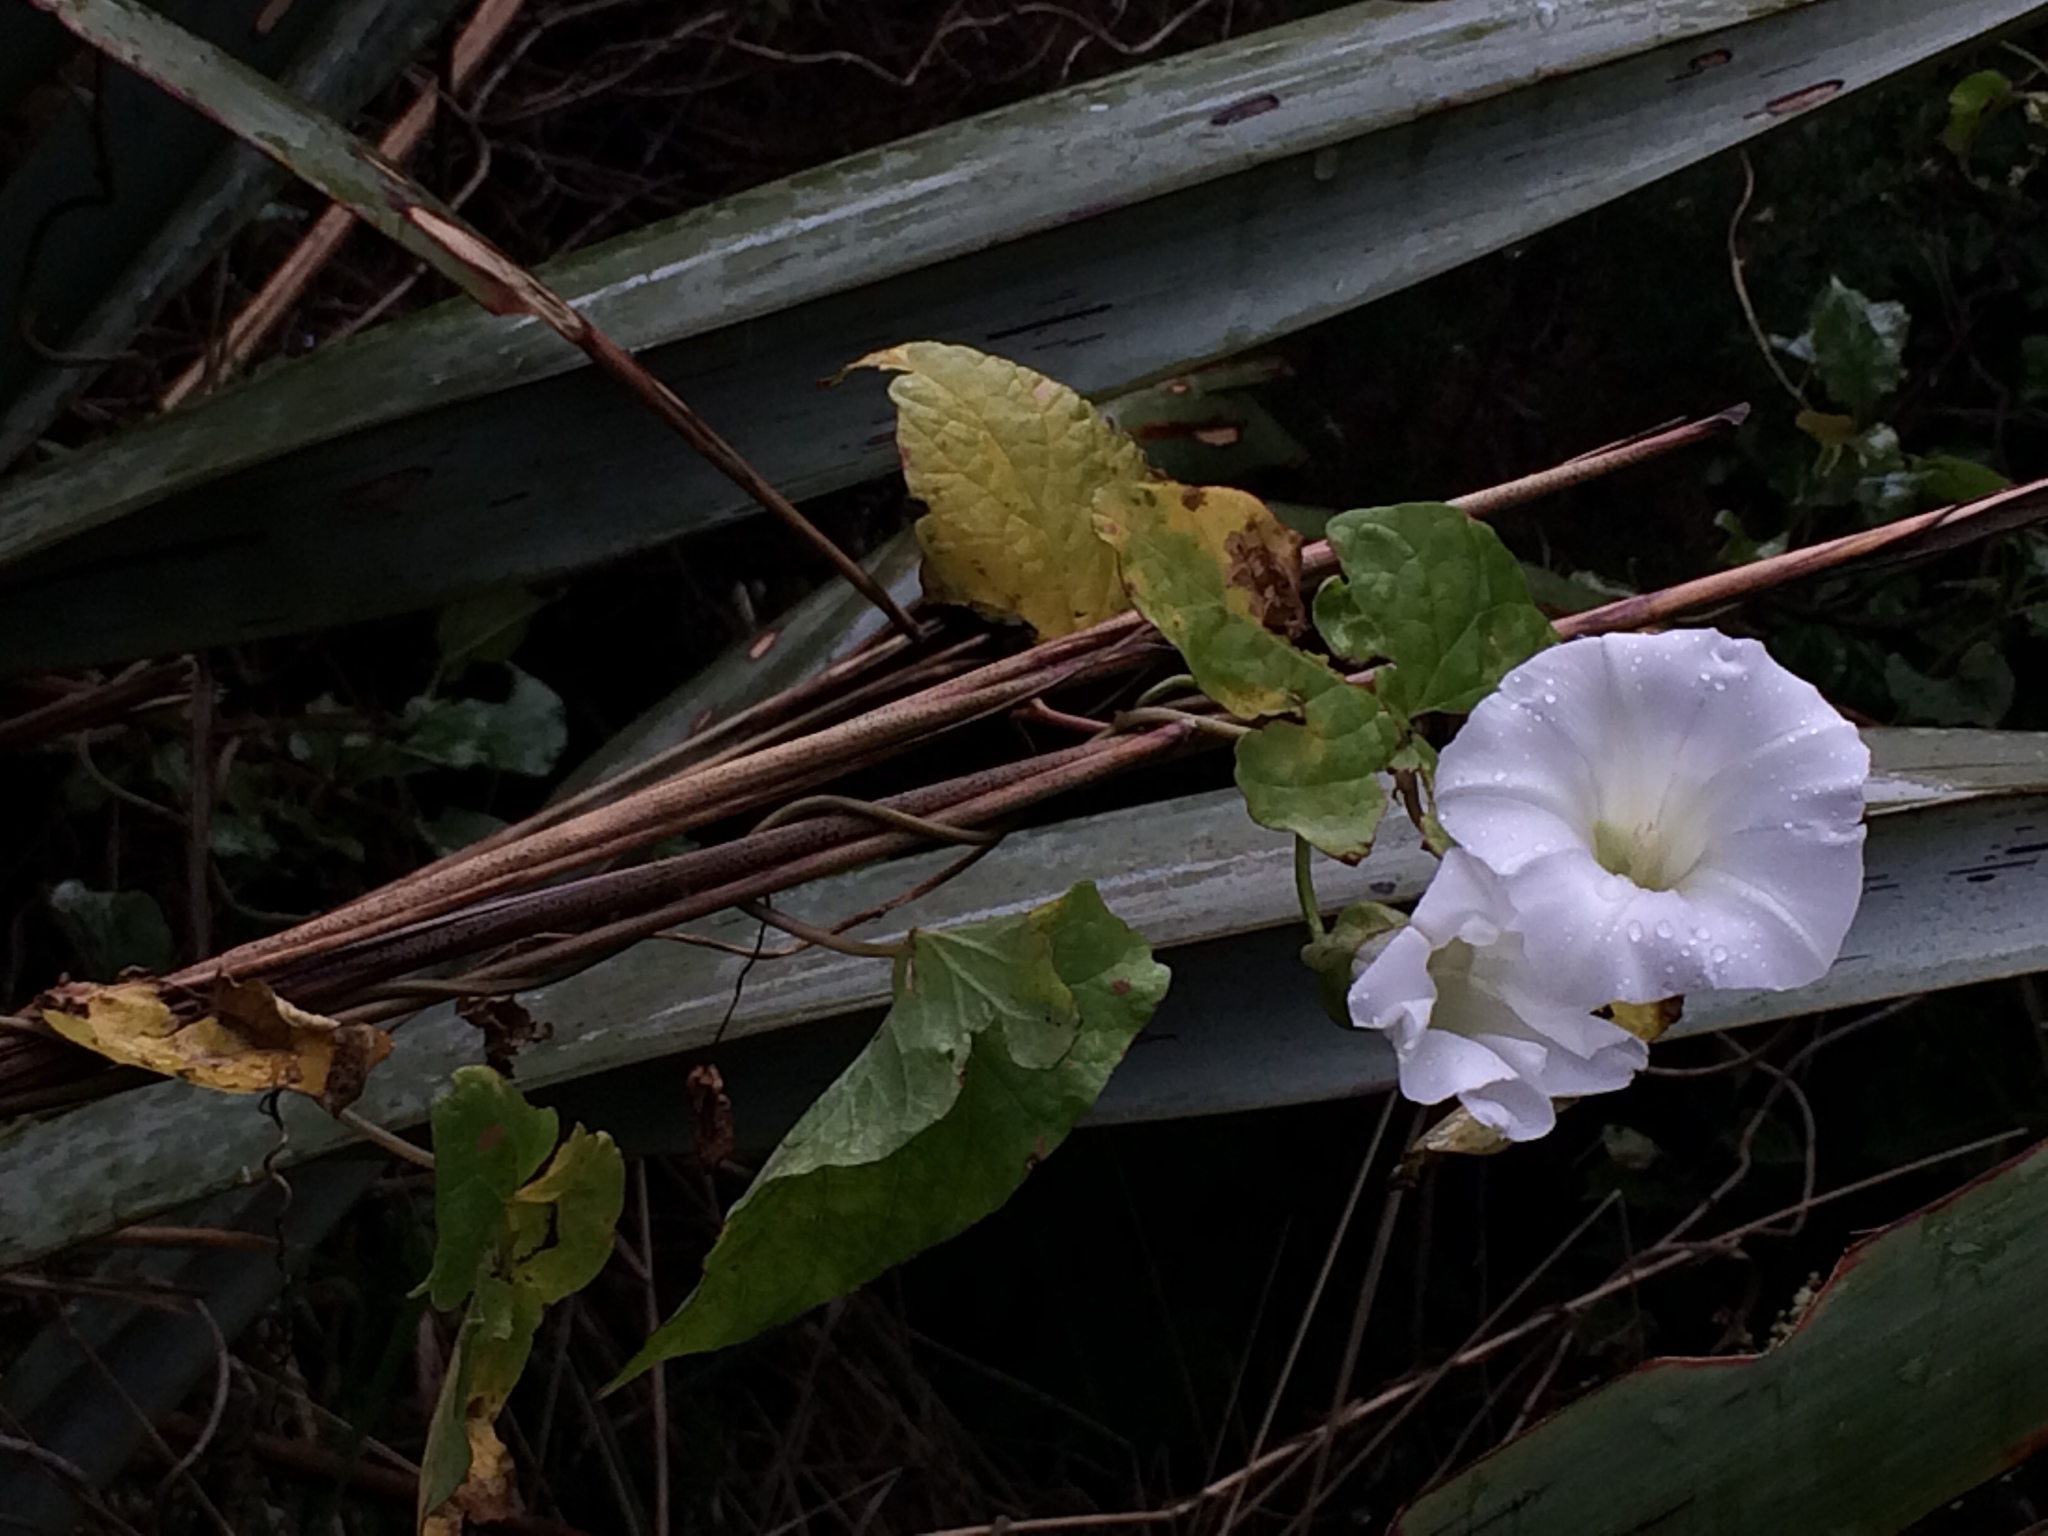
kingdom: Plantae
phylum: Tracheophyta
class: Magnoliopsida
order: Solanales
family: Convolvulaceae
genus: Calystegia
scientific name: Calystegia silvatica
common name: Large bindweed
